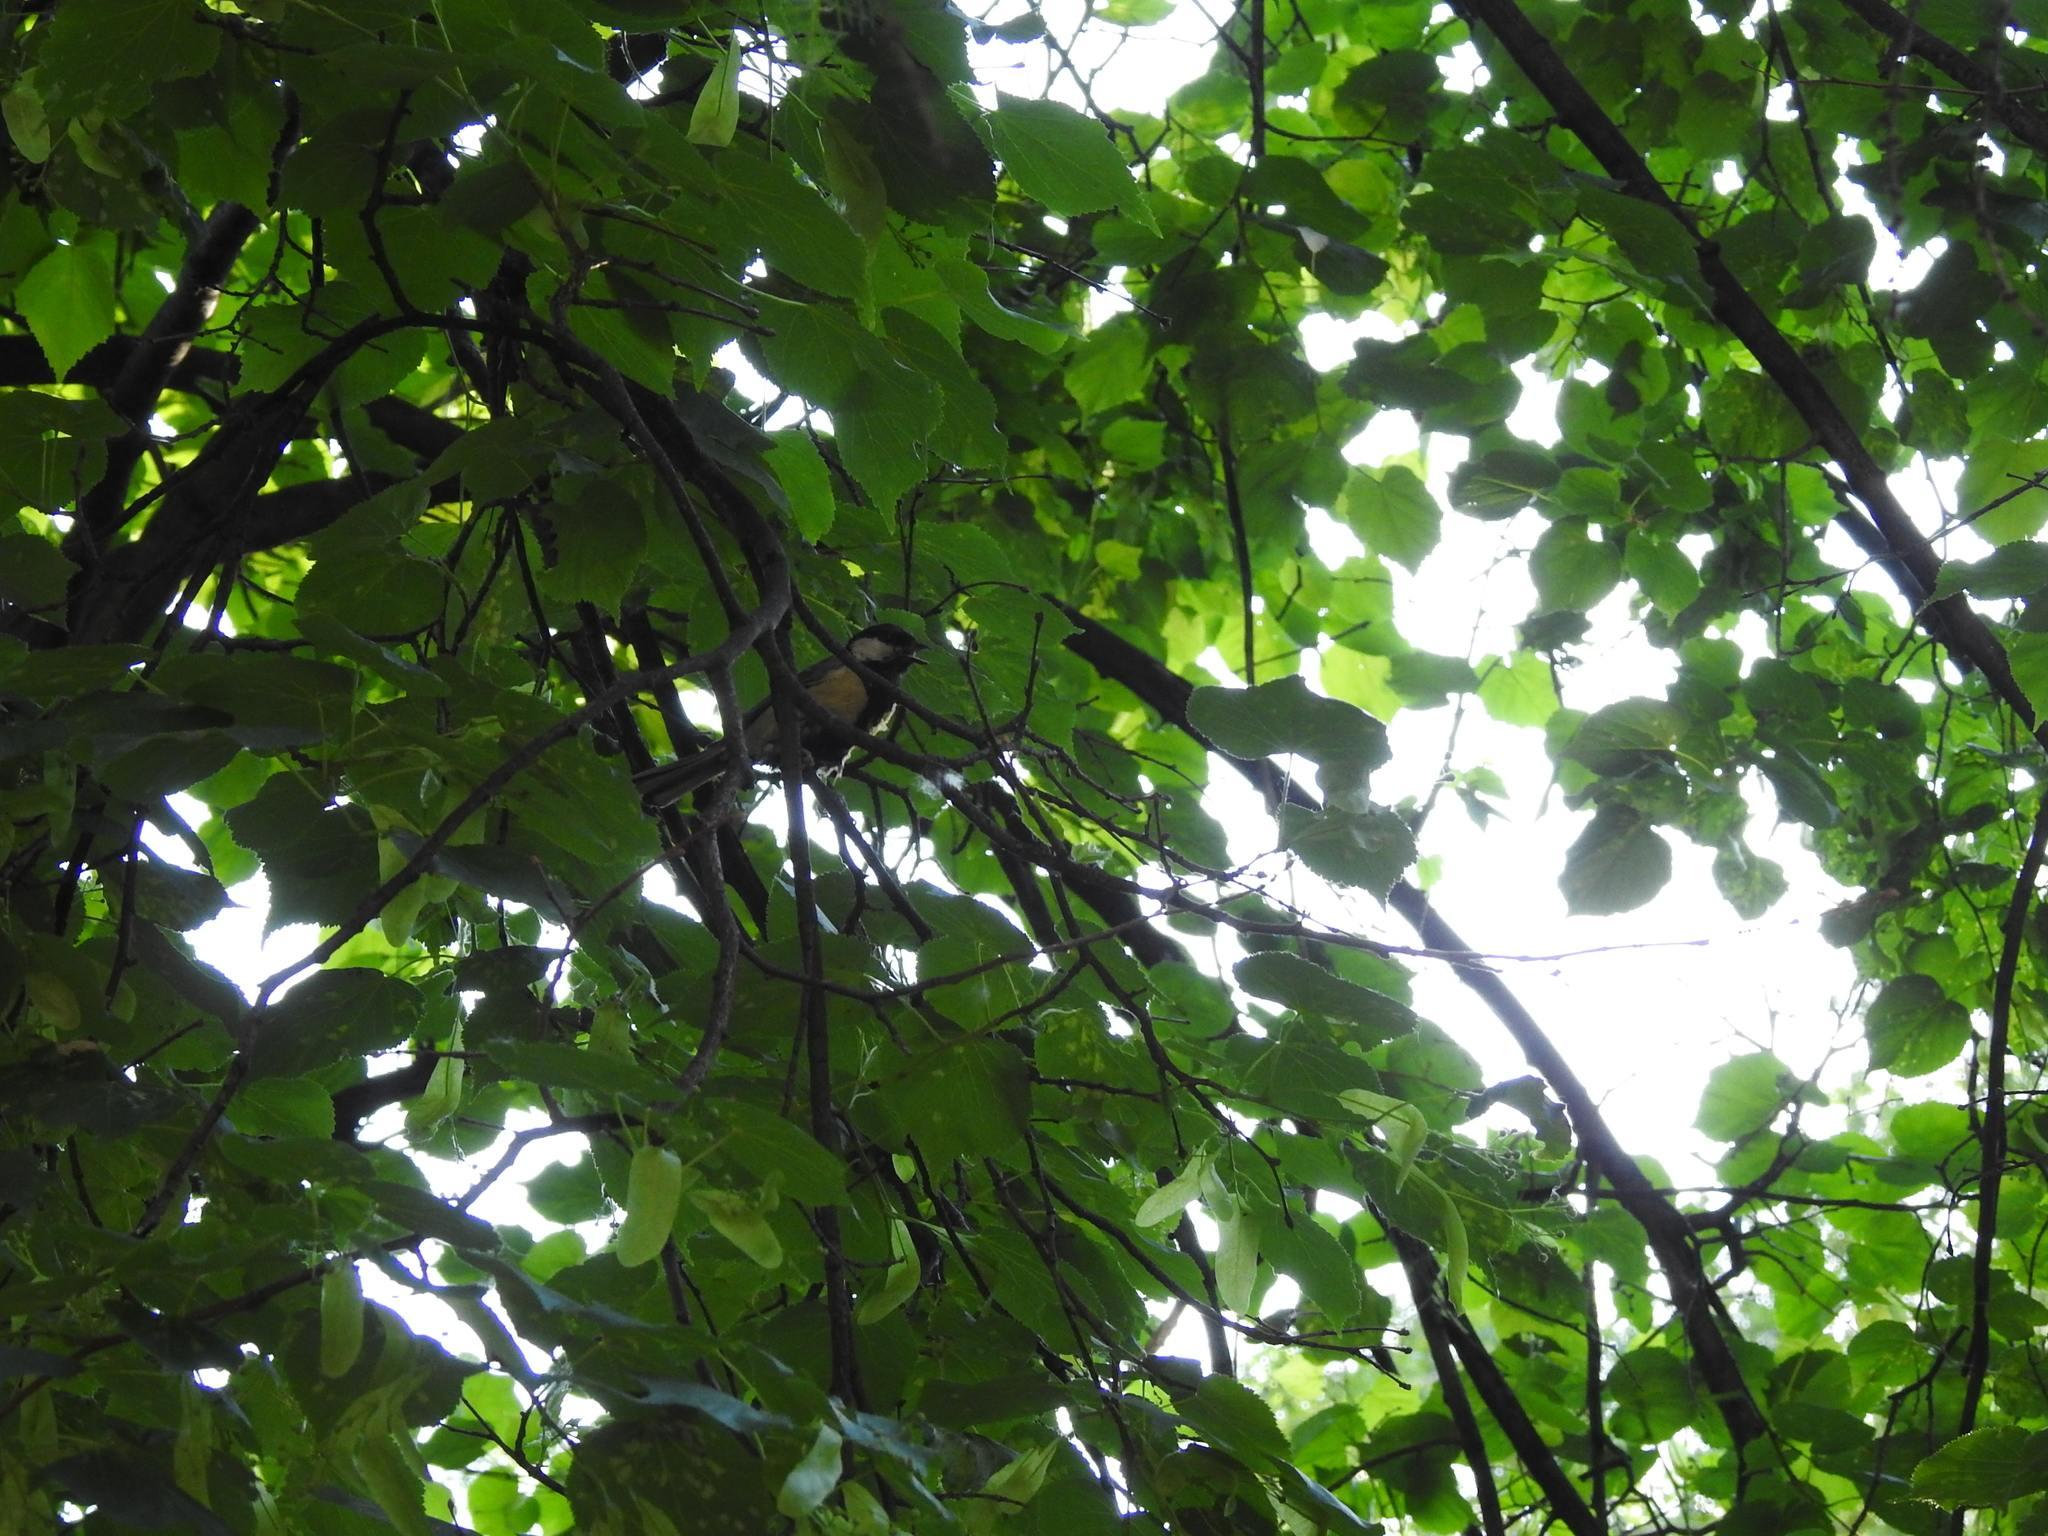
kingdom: Animalia
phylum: Chordata
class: Aves
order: Passeriformes
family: Paridae
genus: Parus
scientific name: Parus major
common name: Great tit
